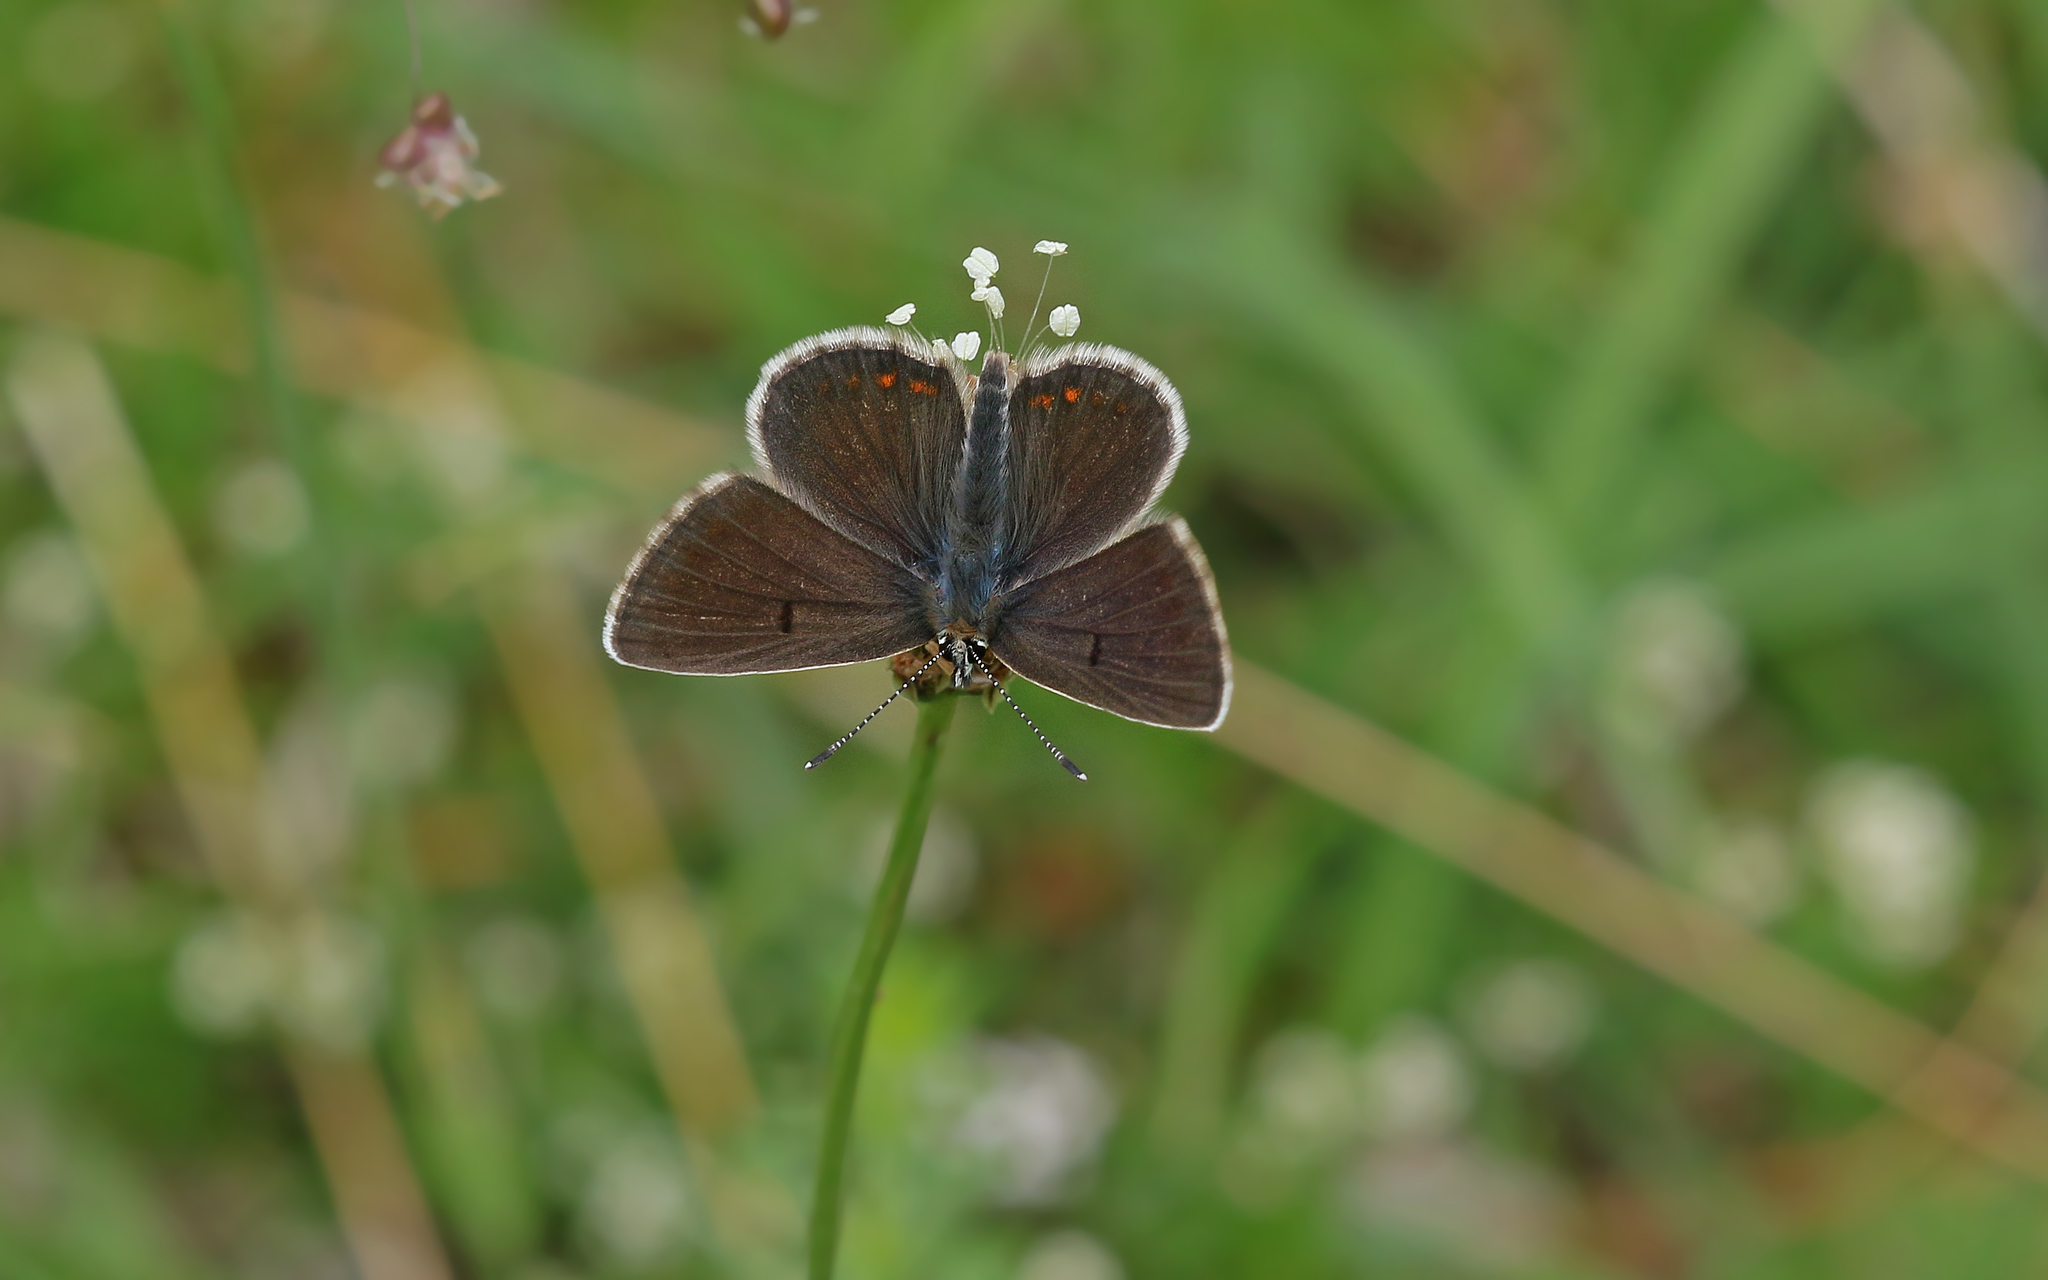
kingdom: Animalia
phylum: Arthropoda
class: Insecta
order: Lepidoptera
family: Lycaenidae
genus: Aricia
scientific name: Aricia artaxerxes
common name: Northern brown argus
